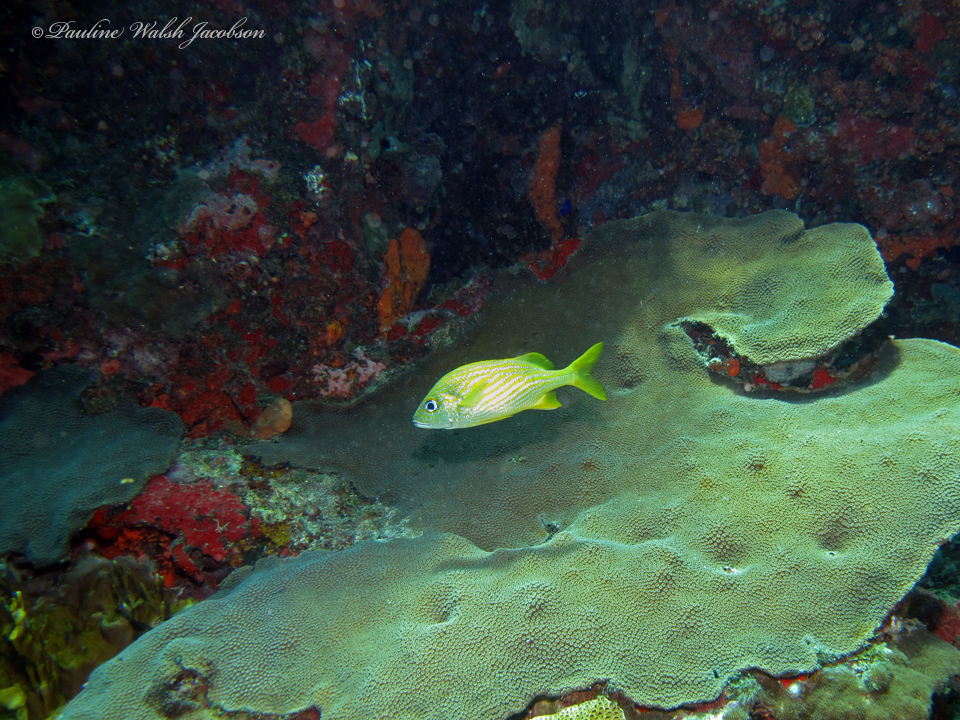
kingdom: Animalia
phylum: Chordata
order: Perciformes
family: Haemulidae
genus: Haemulon
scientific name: Haemulon flavolineatum
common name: French grunt
